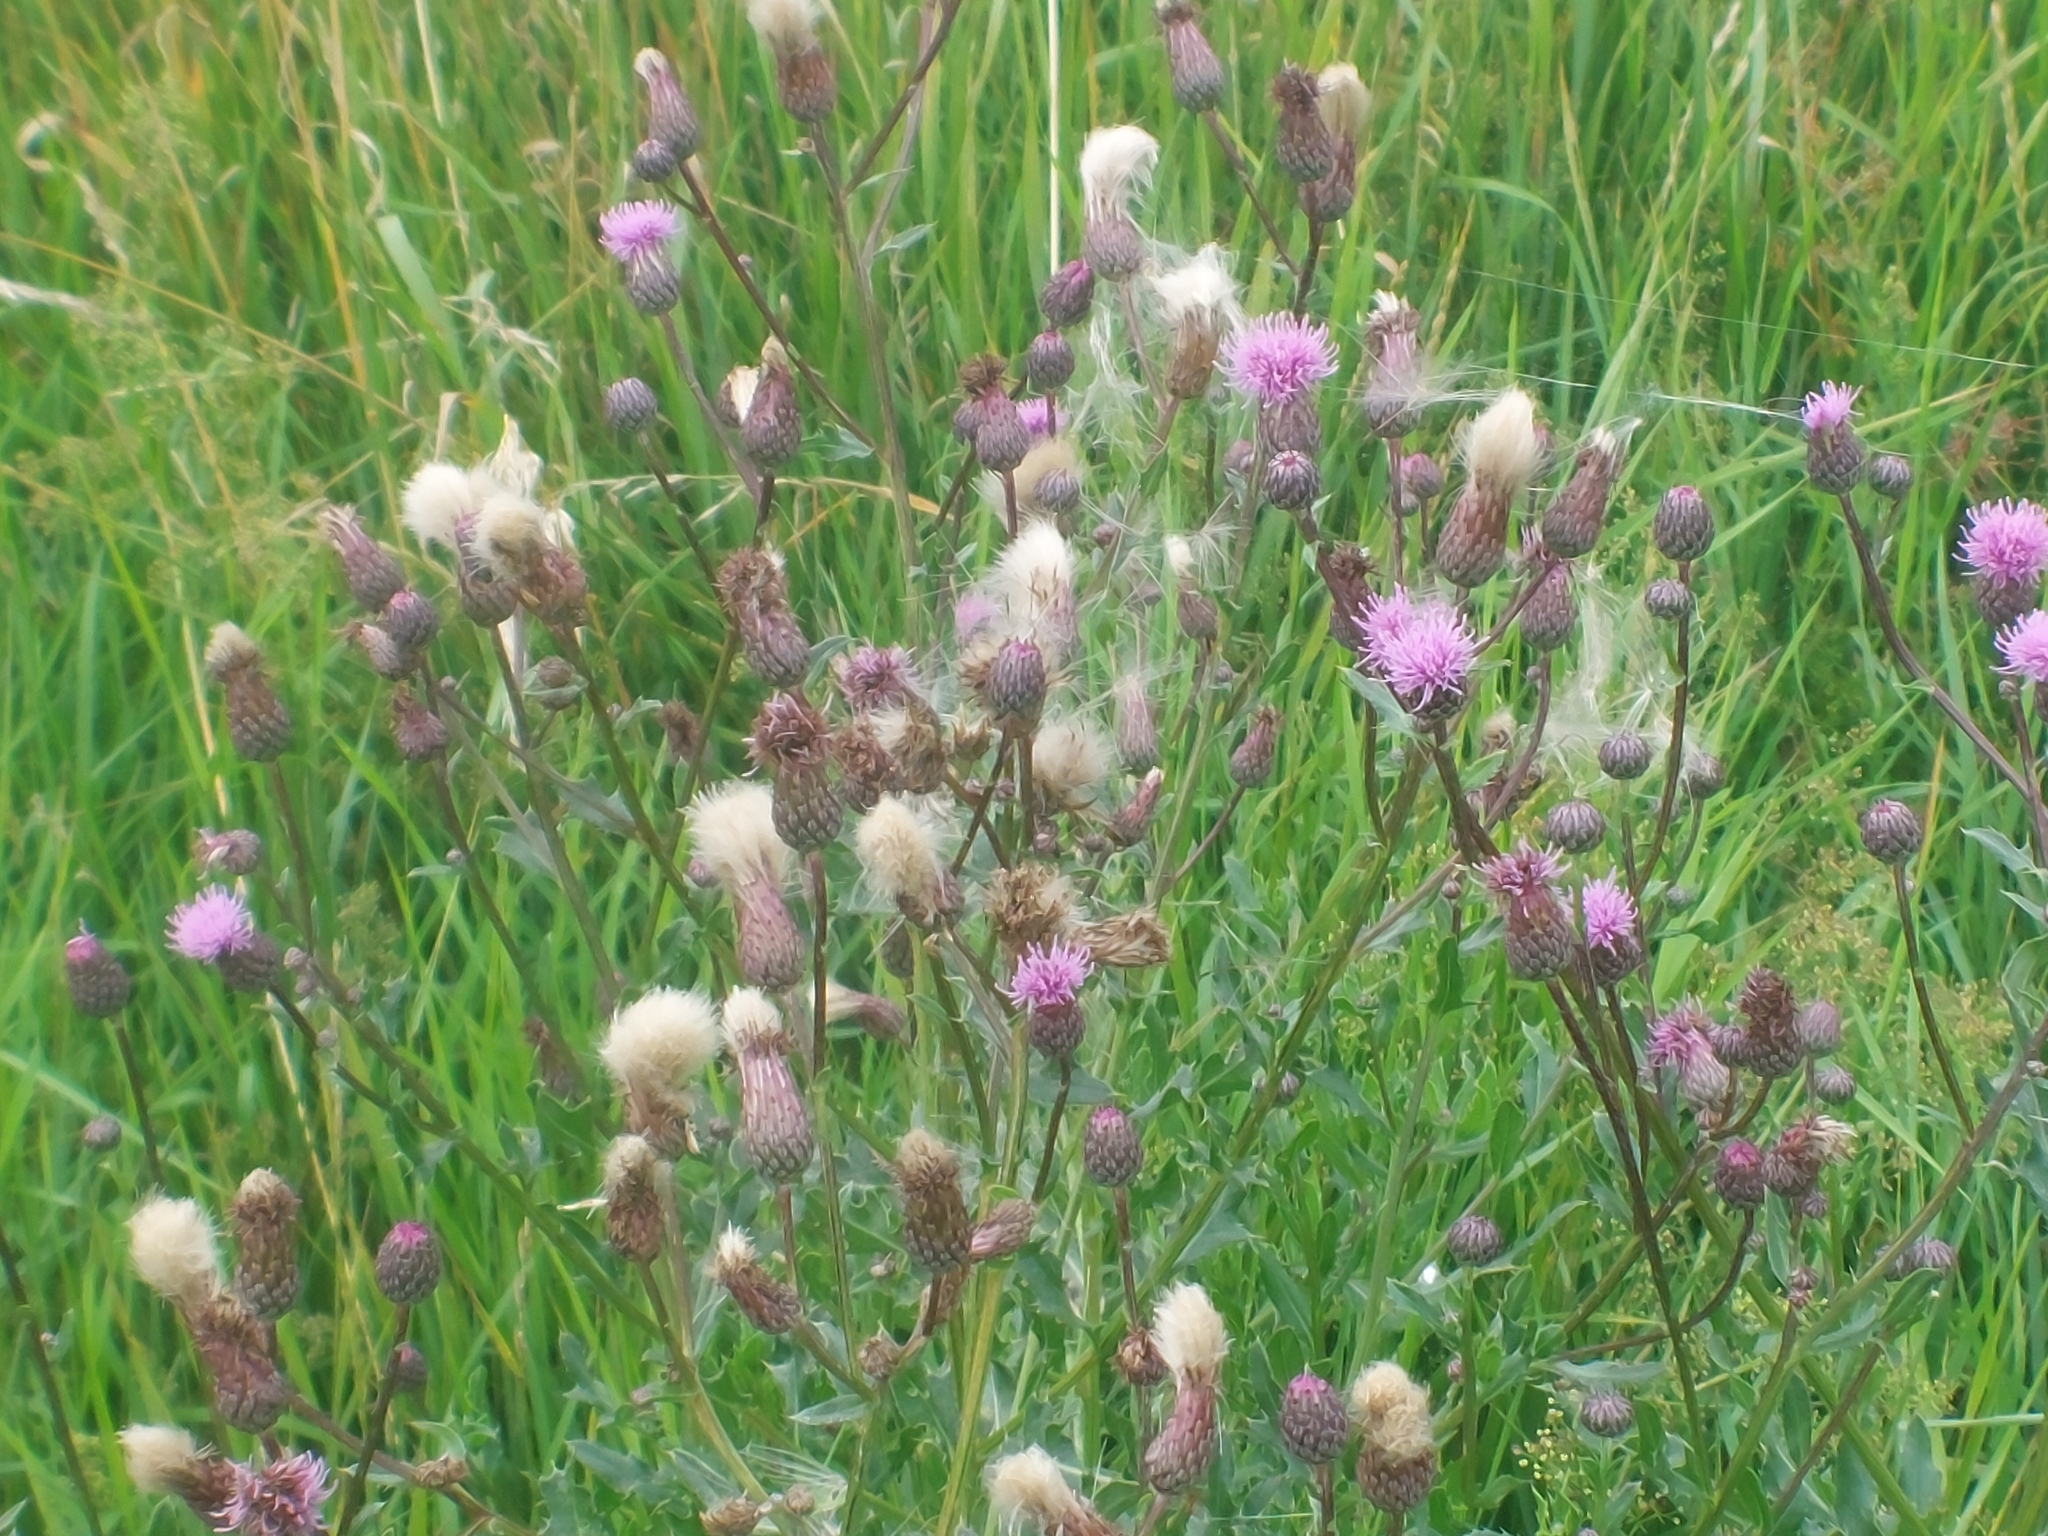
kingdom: Plantae
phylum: Tracheophyta
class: Magnoliopsida
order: Asterales
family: Asteraceae
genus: Cirsium
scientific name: Cirsium arvense
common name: Creeping thistle
